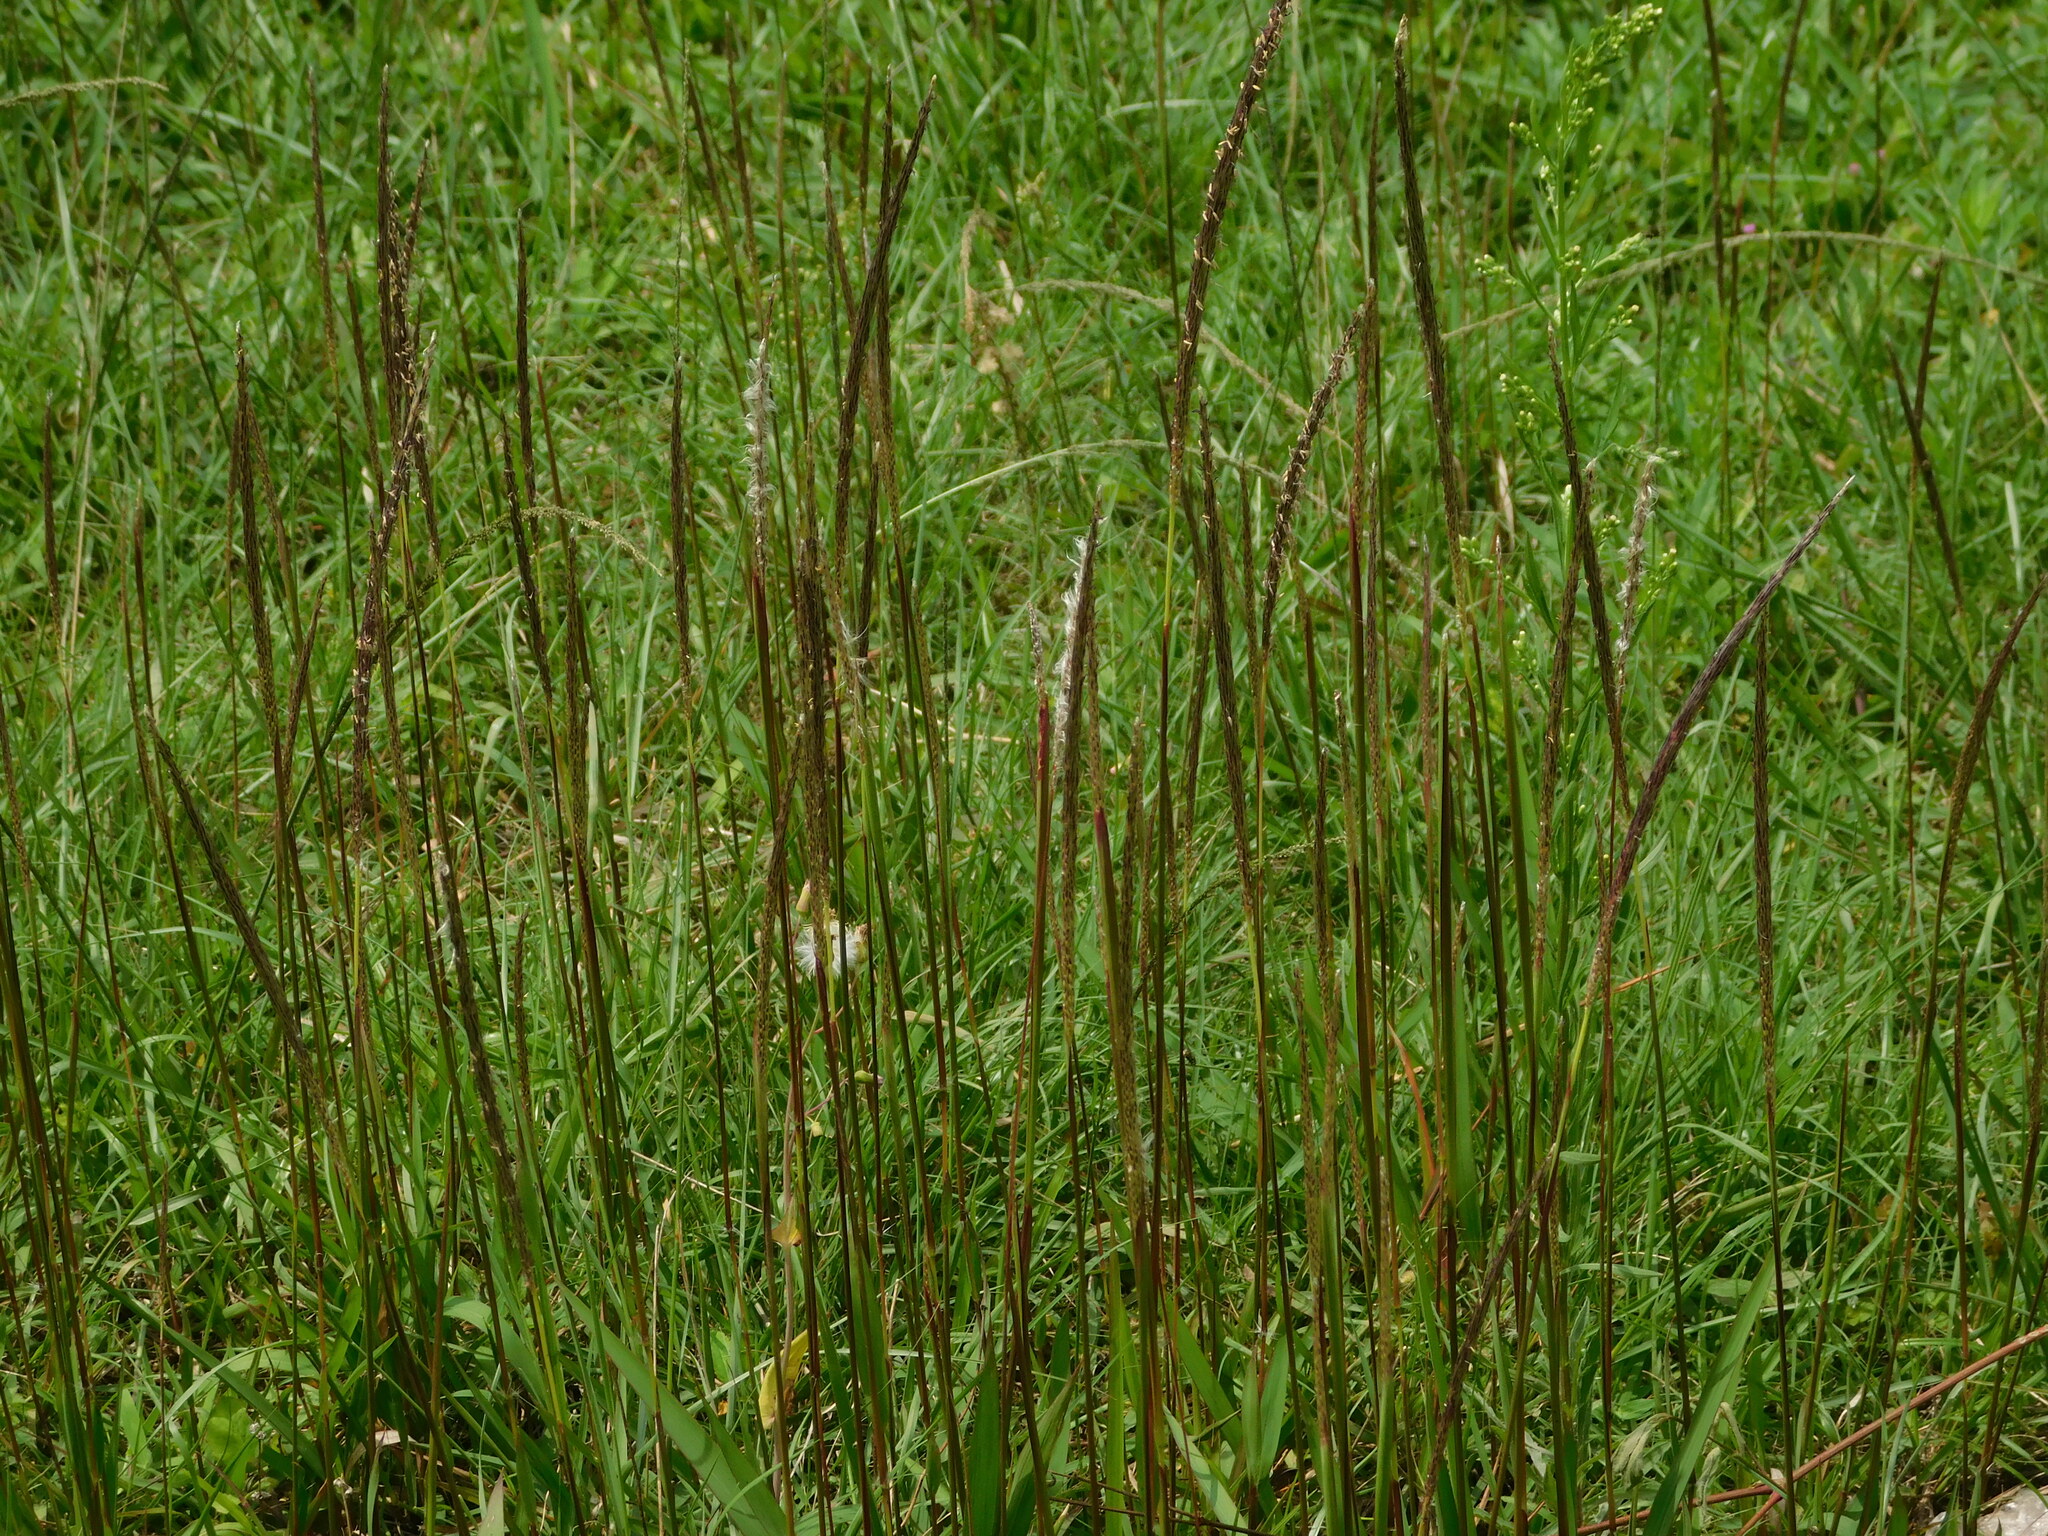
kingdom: Plantae
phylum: Tracheophyta
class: Liliopsida
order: Poales
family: Poaceae
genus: Pogonatherum
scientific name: Pogonatherum crinitum
